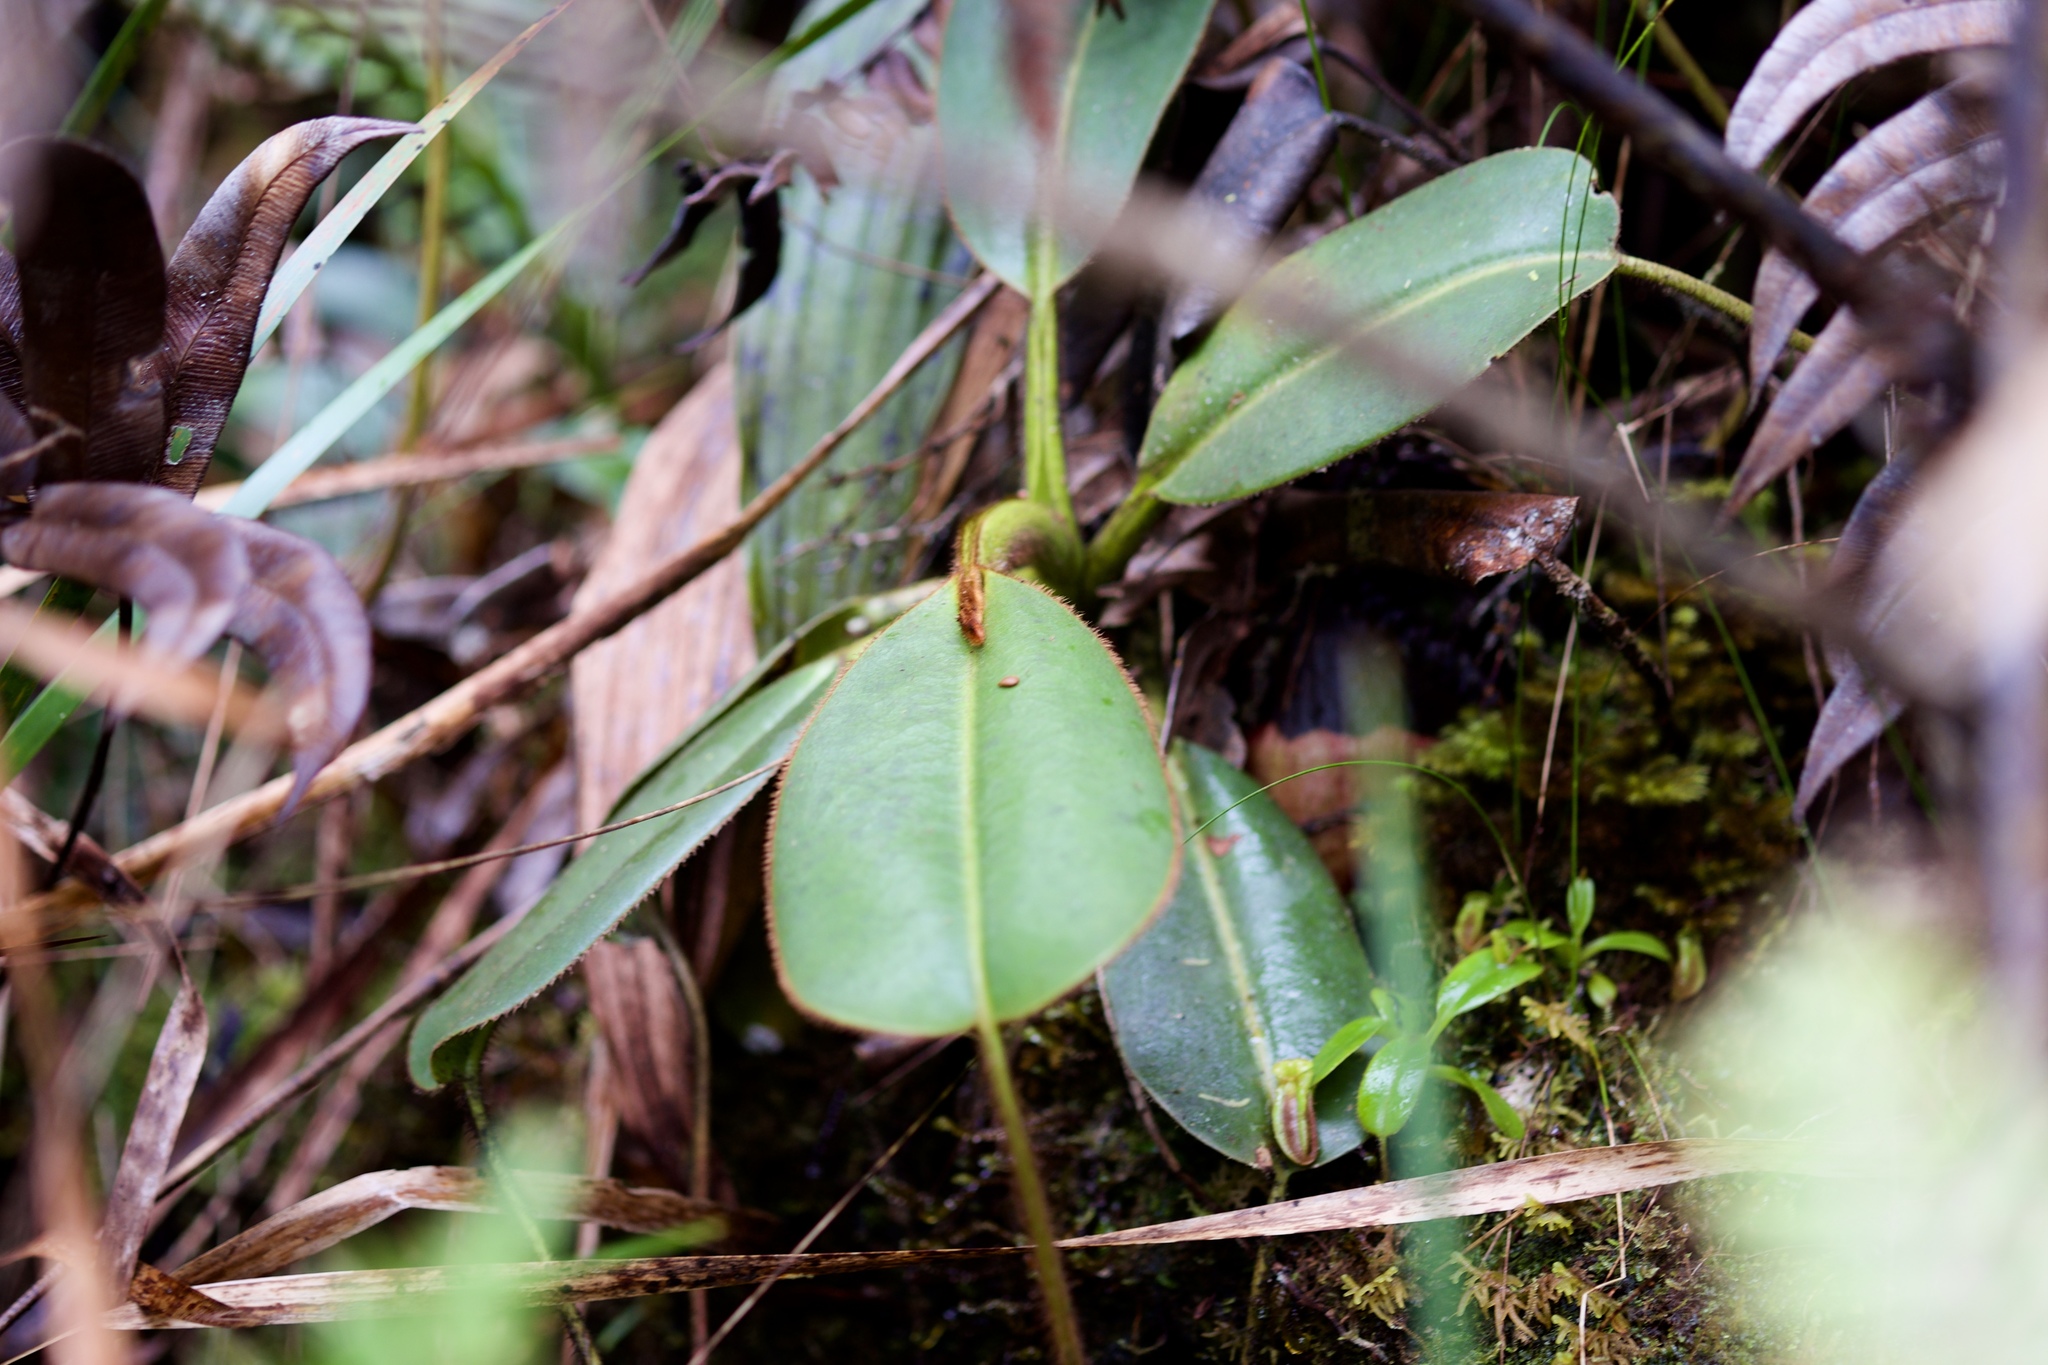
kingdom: Plantae
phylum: Tracheophyta
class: Magnoliopsida
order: Caryophyllales
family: Nepenthaceae
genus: Nepenthes
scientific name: Nepenthes villosa
